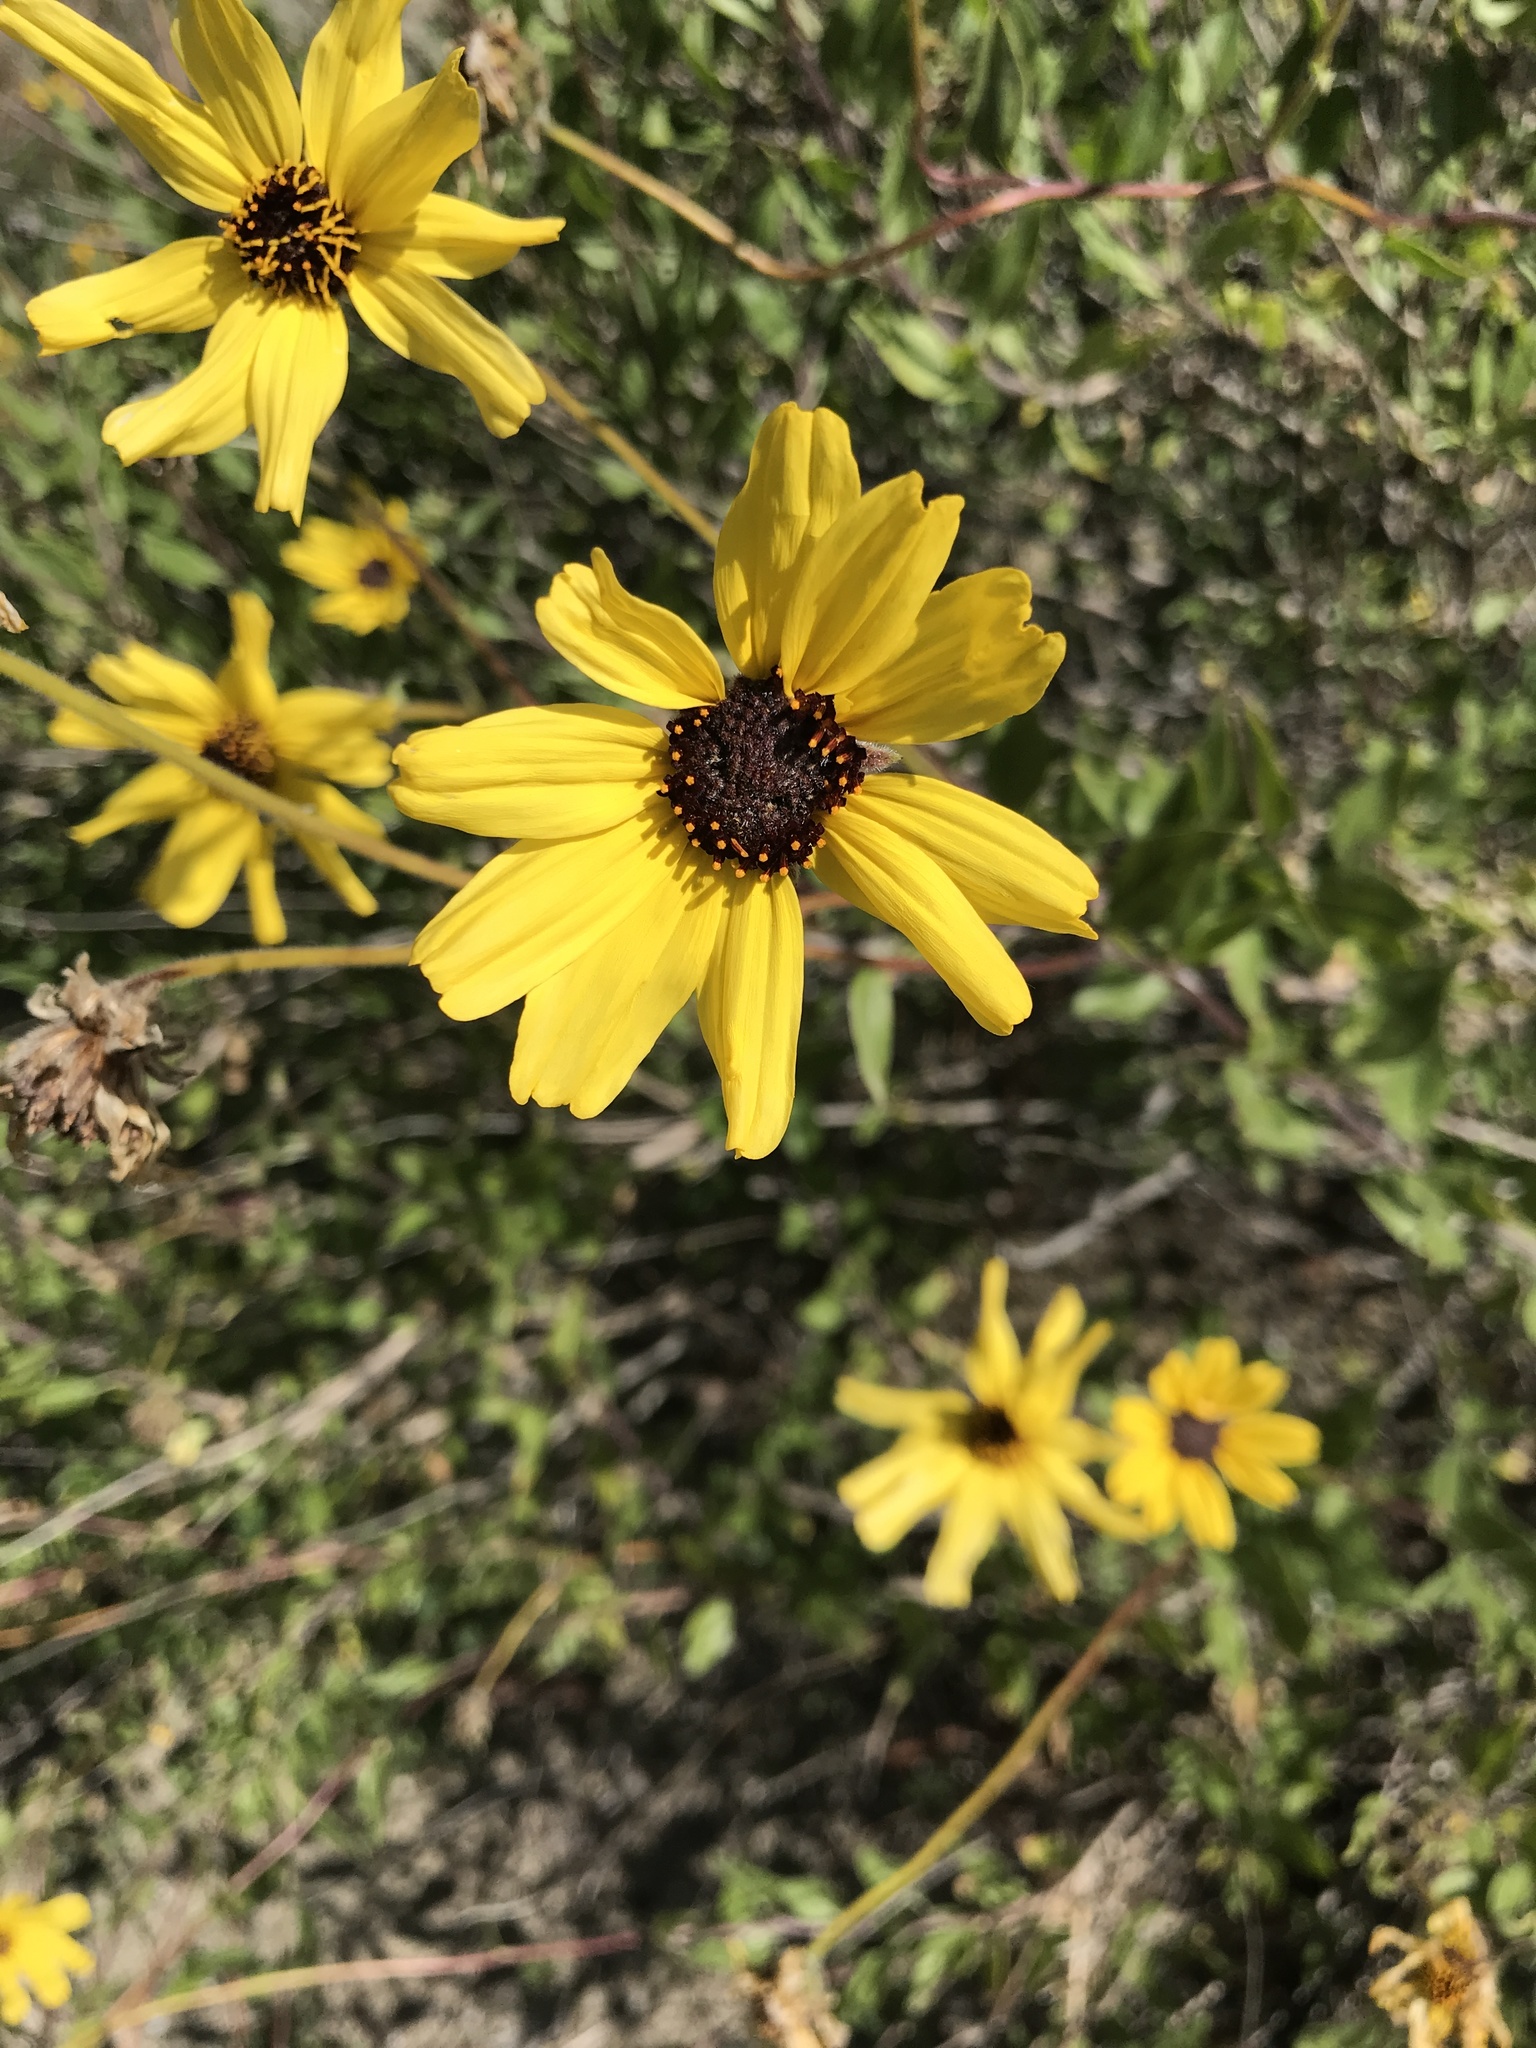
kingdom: Plantae
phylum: Tracheophyta
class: Magnoliopsida
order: Asterales
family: Asteraceae
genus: Encelia
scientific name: Encelia californica
